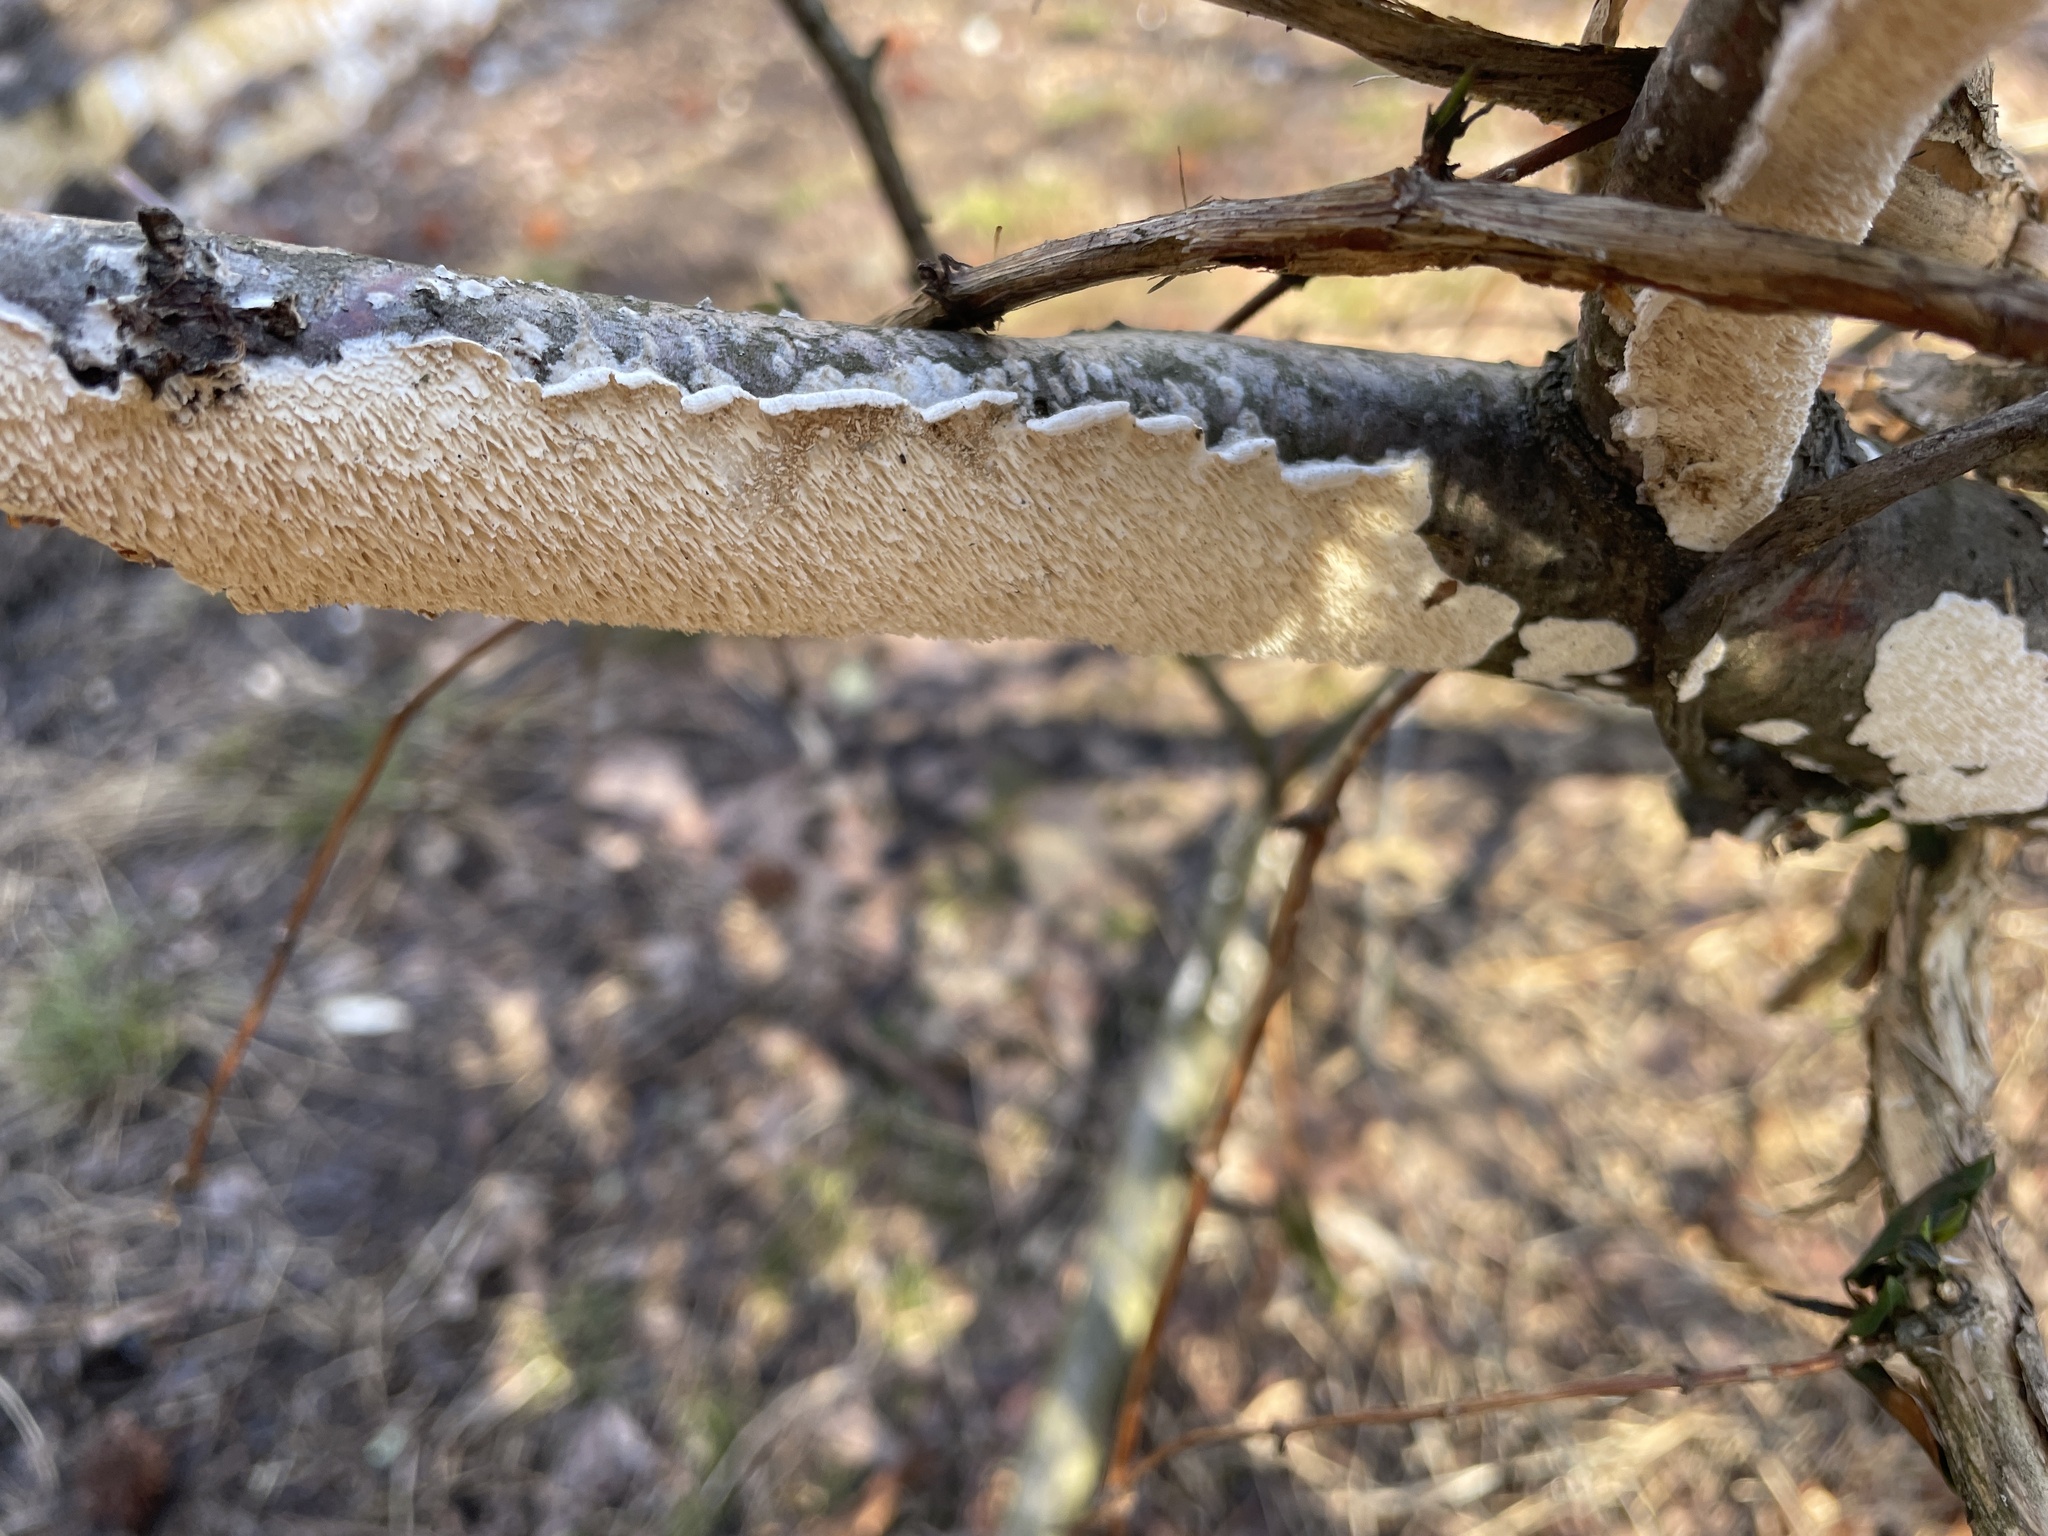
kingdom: Fungi
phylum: Basidiomycota
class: Agaricomycetes
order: Polyporales
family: Irpicaceae
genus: Irpex
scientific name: Irpex lacteus
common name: Milk-white toothed polypore
